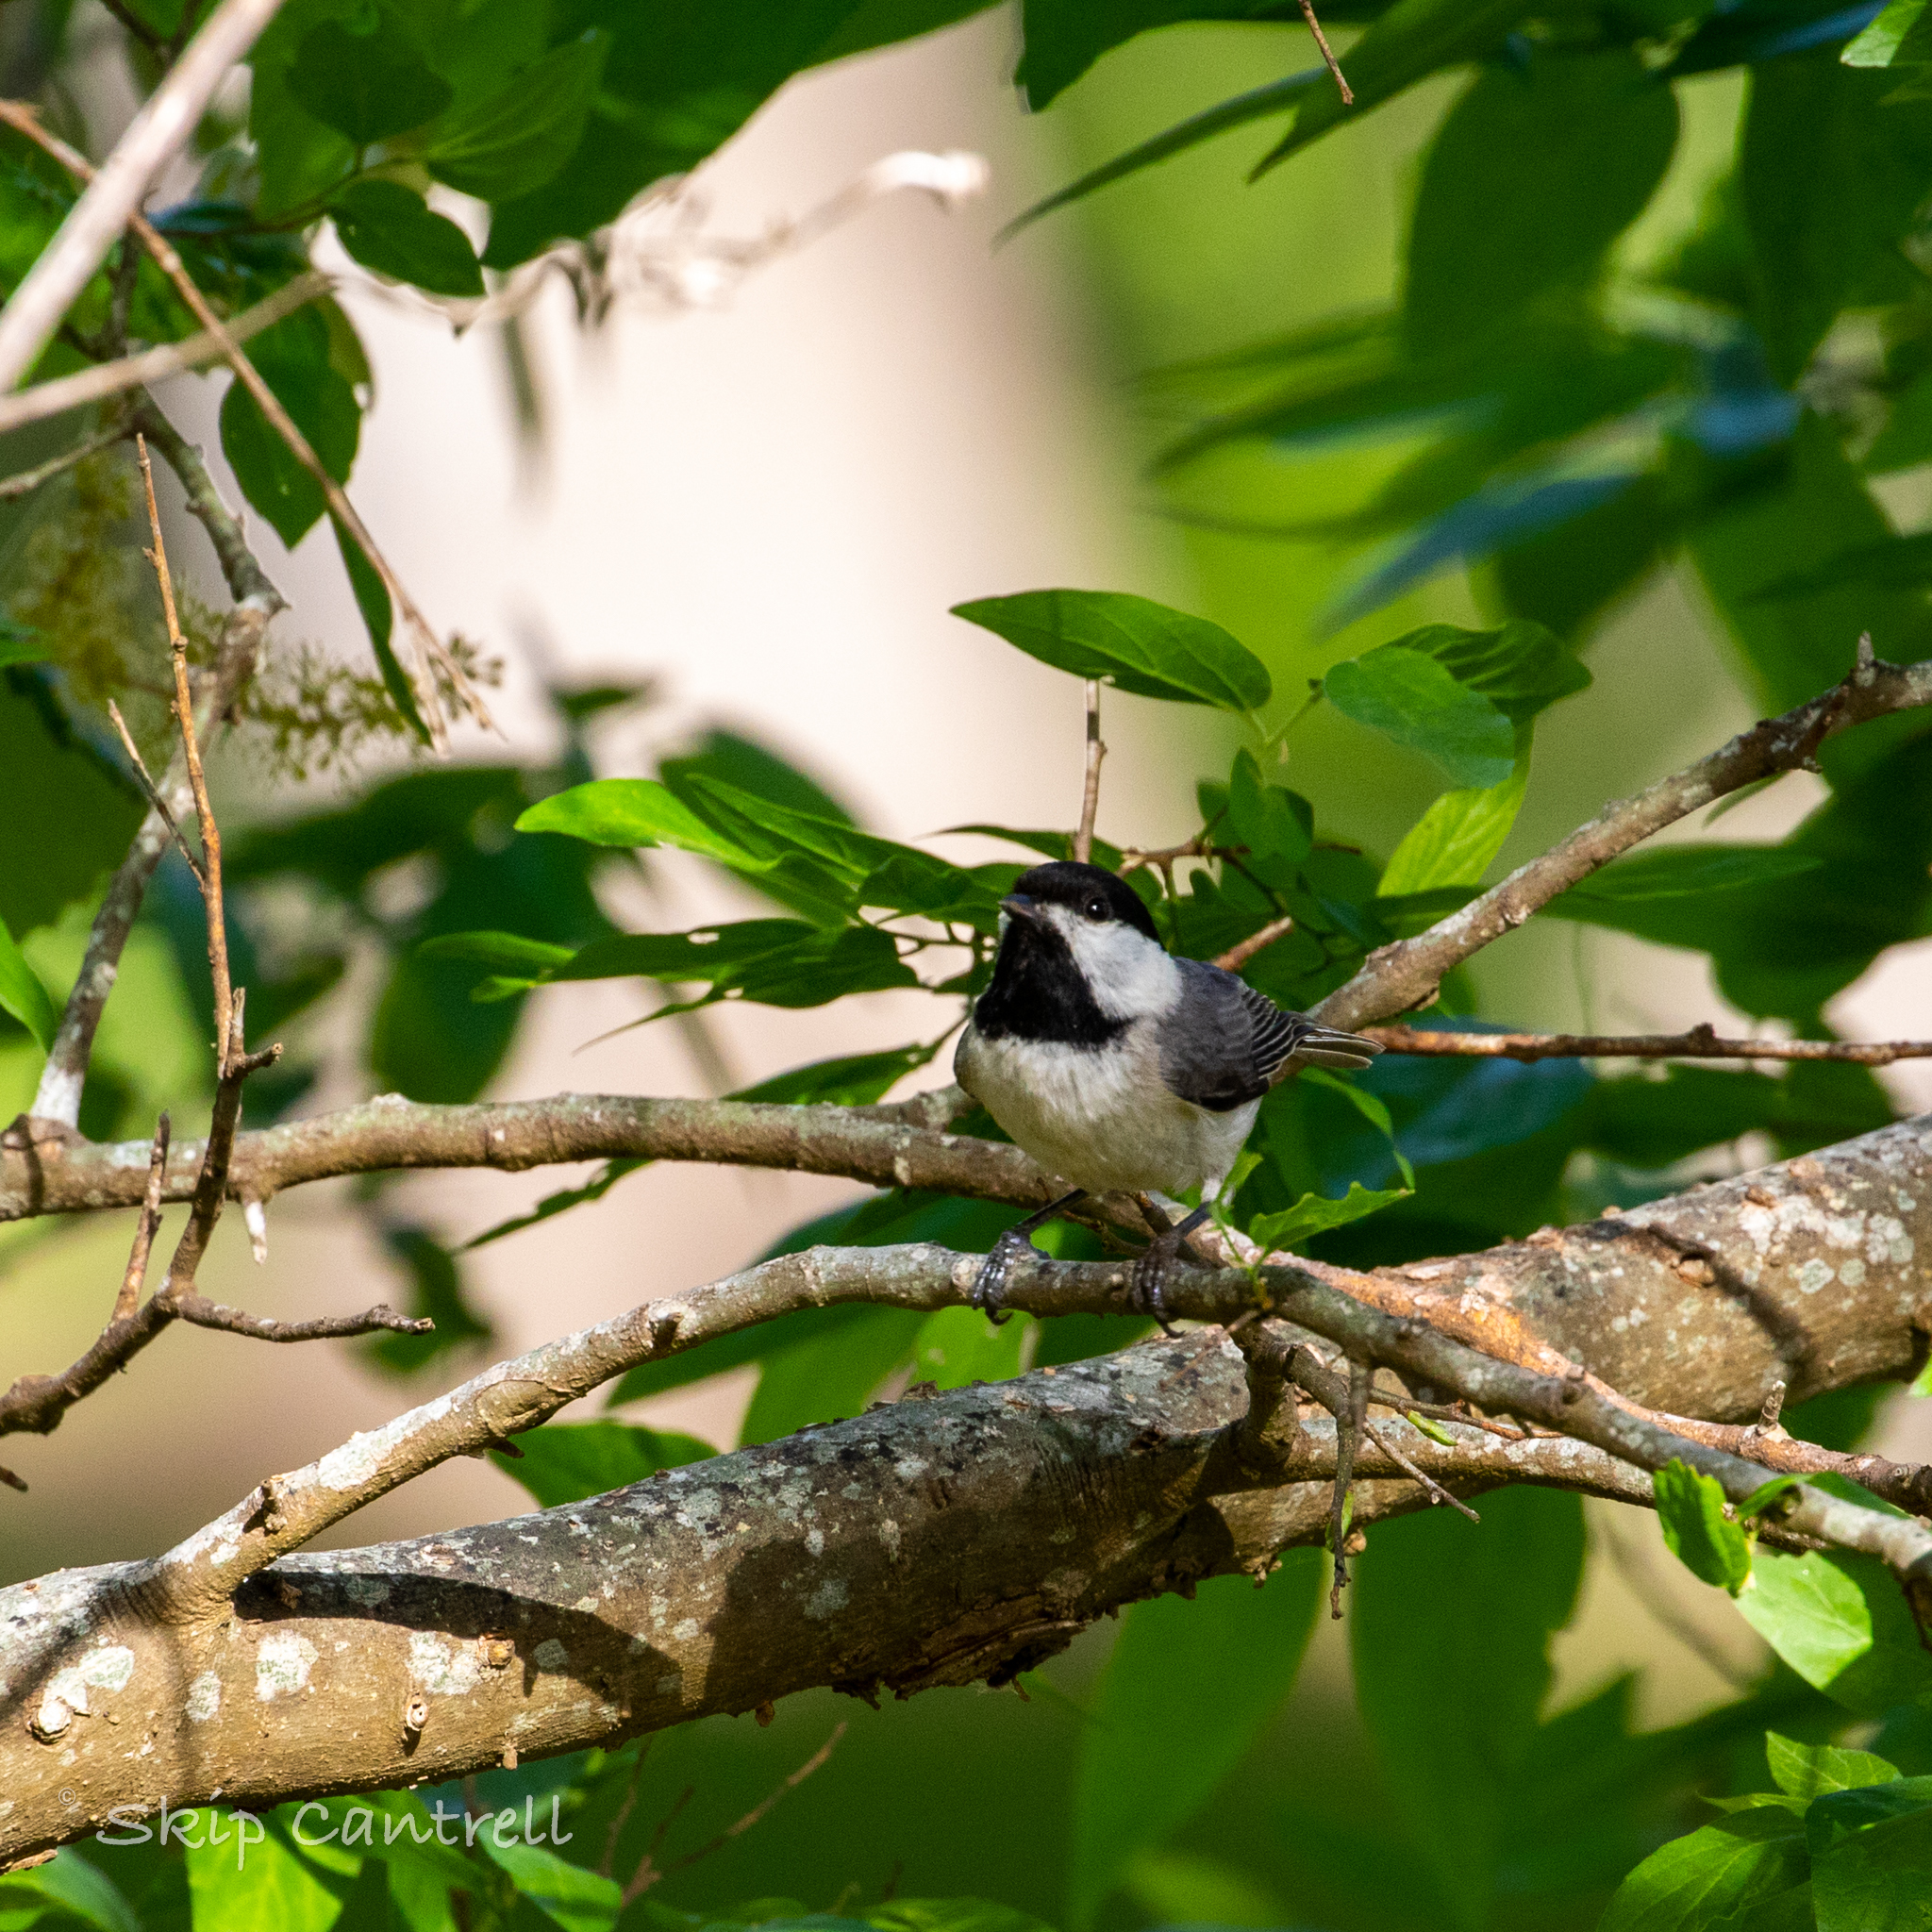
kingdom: Animalia
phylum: Chordata
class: Aves
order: Passeriformes
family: Paridae
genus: Poecile
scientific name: Poecile carolinensis
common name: Carolina chickadee
